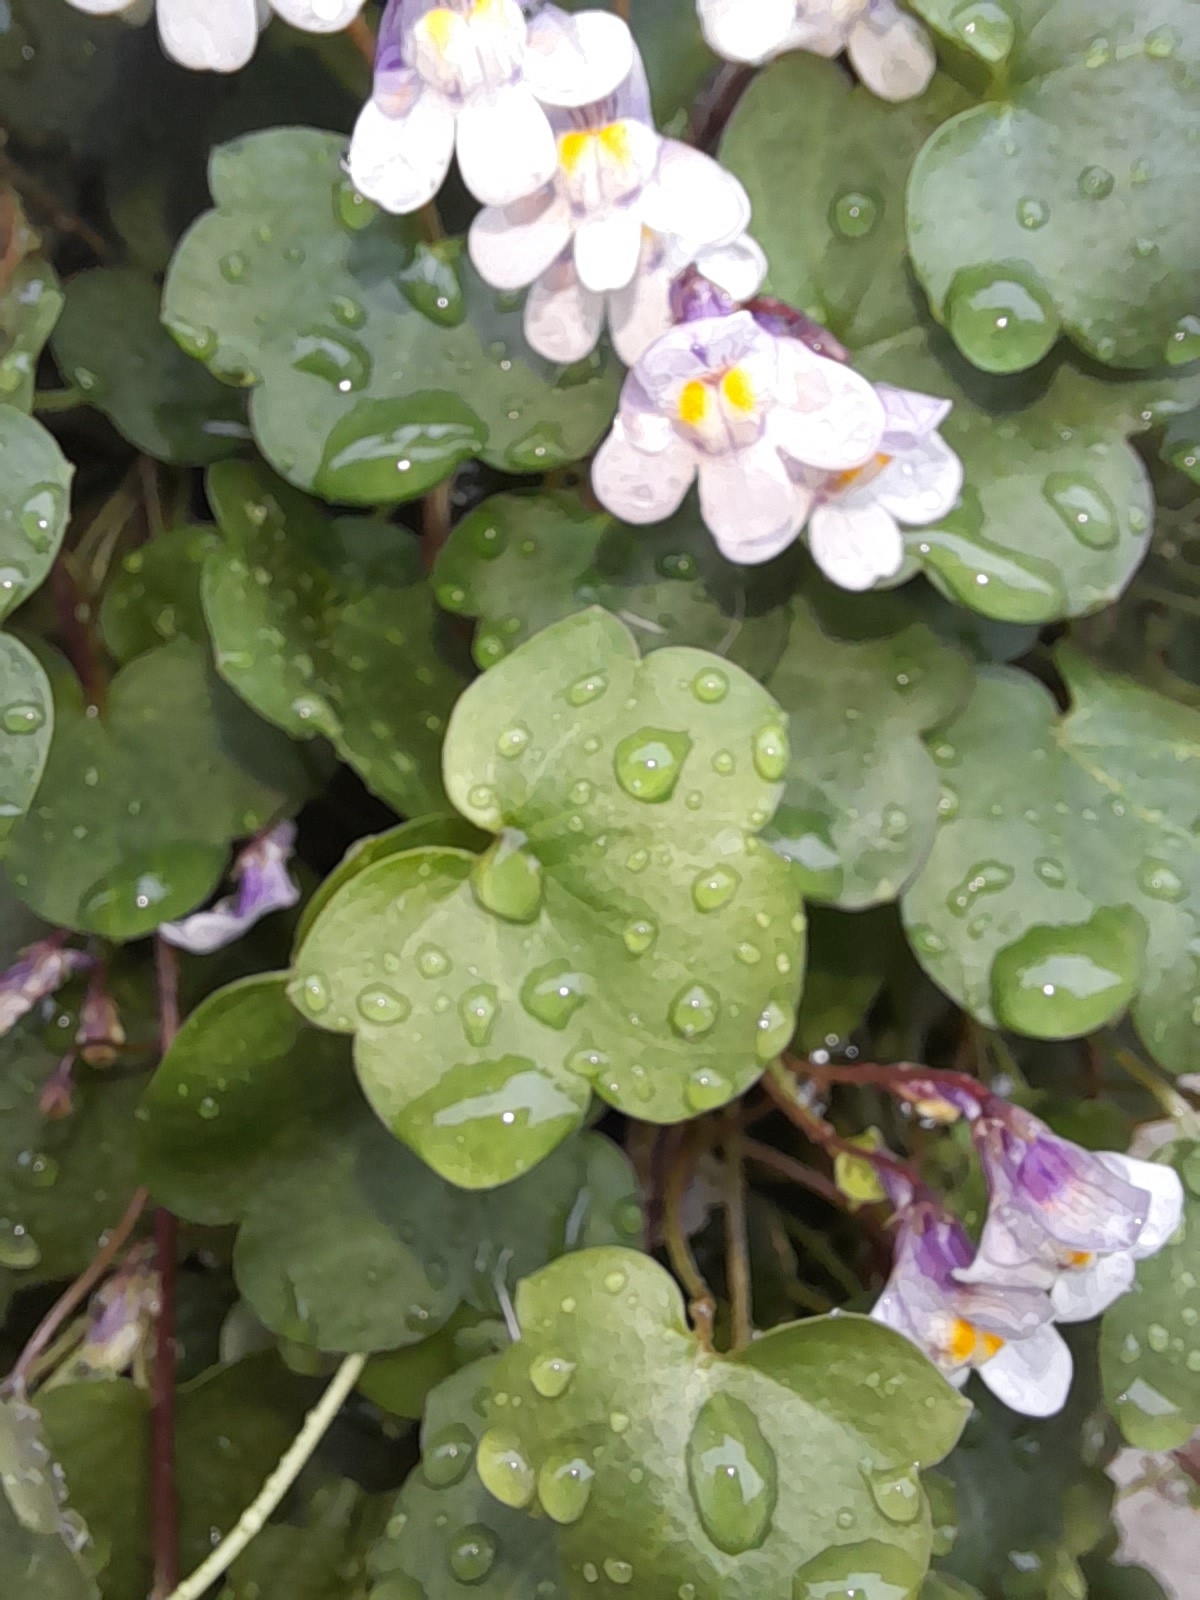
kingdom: Plantae
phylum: Tracheophyta
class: Magnoliopsida
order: Lamiales
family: Plantaginaceae
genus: Cymbalaria
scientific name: Cymbalaria muralis
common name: Ivy-leaved toadflax
